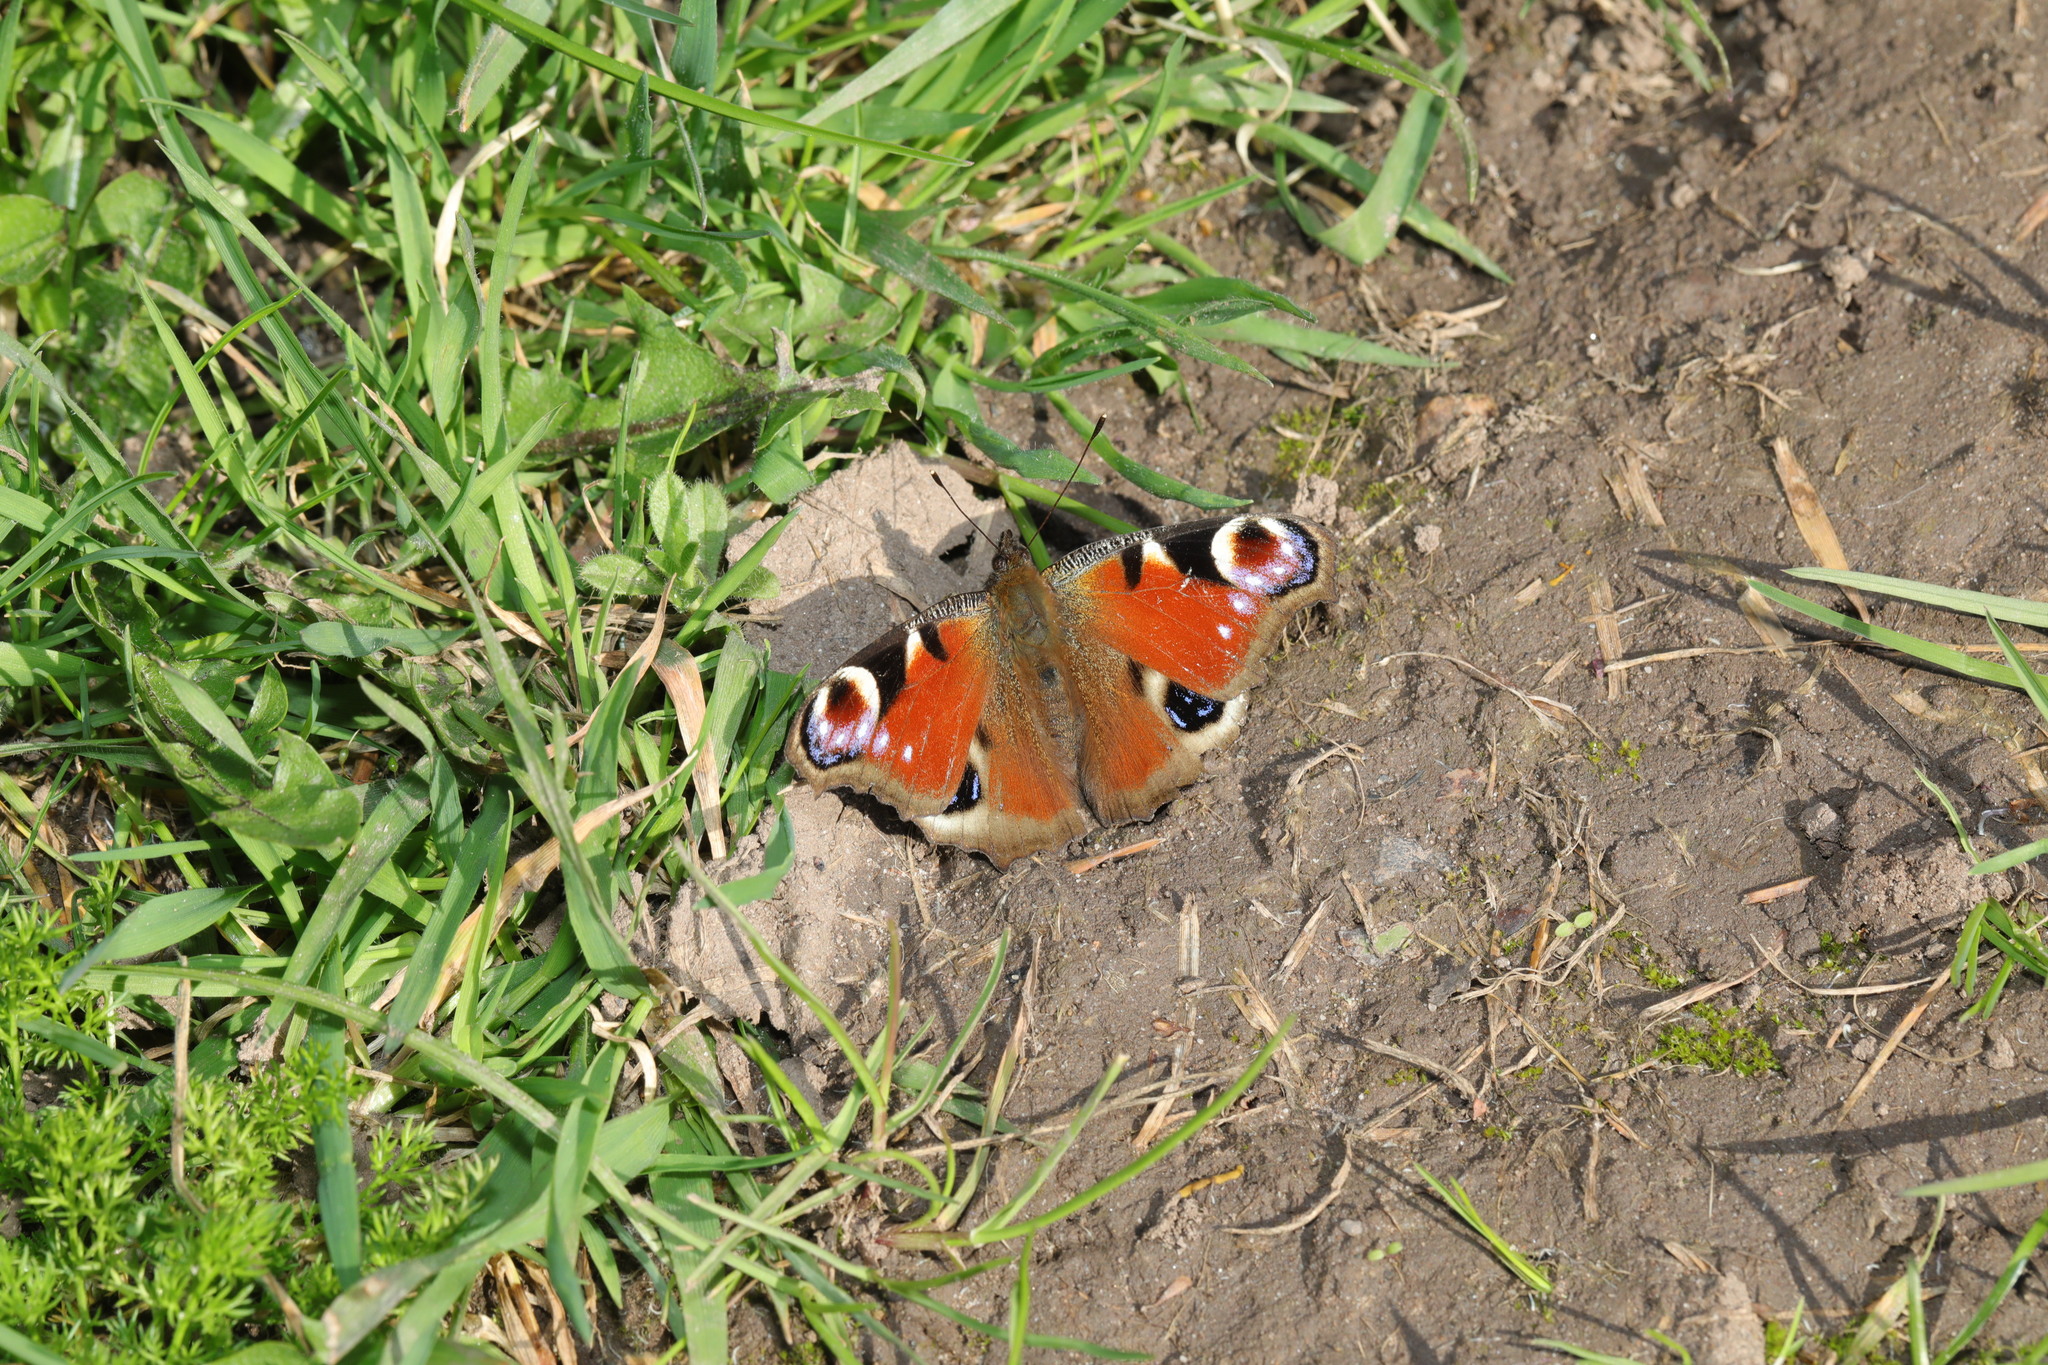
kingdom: Animalia
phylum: Arthropoda
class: Insecta
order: Lepidoptera
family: Nymphalidae
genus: Aglais
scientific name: Aglais io
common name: Peacock
